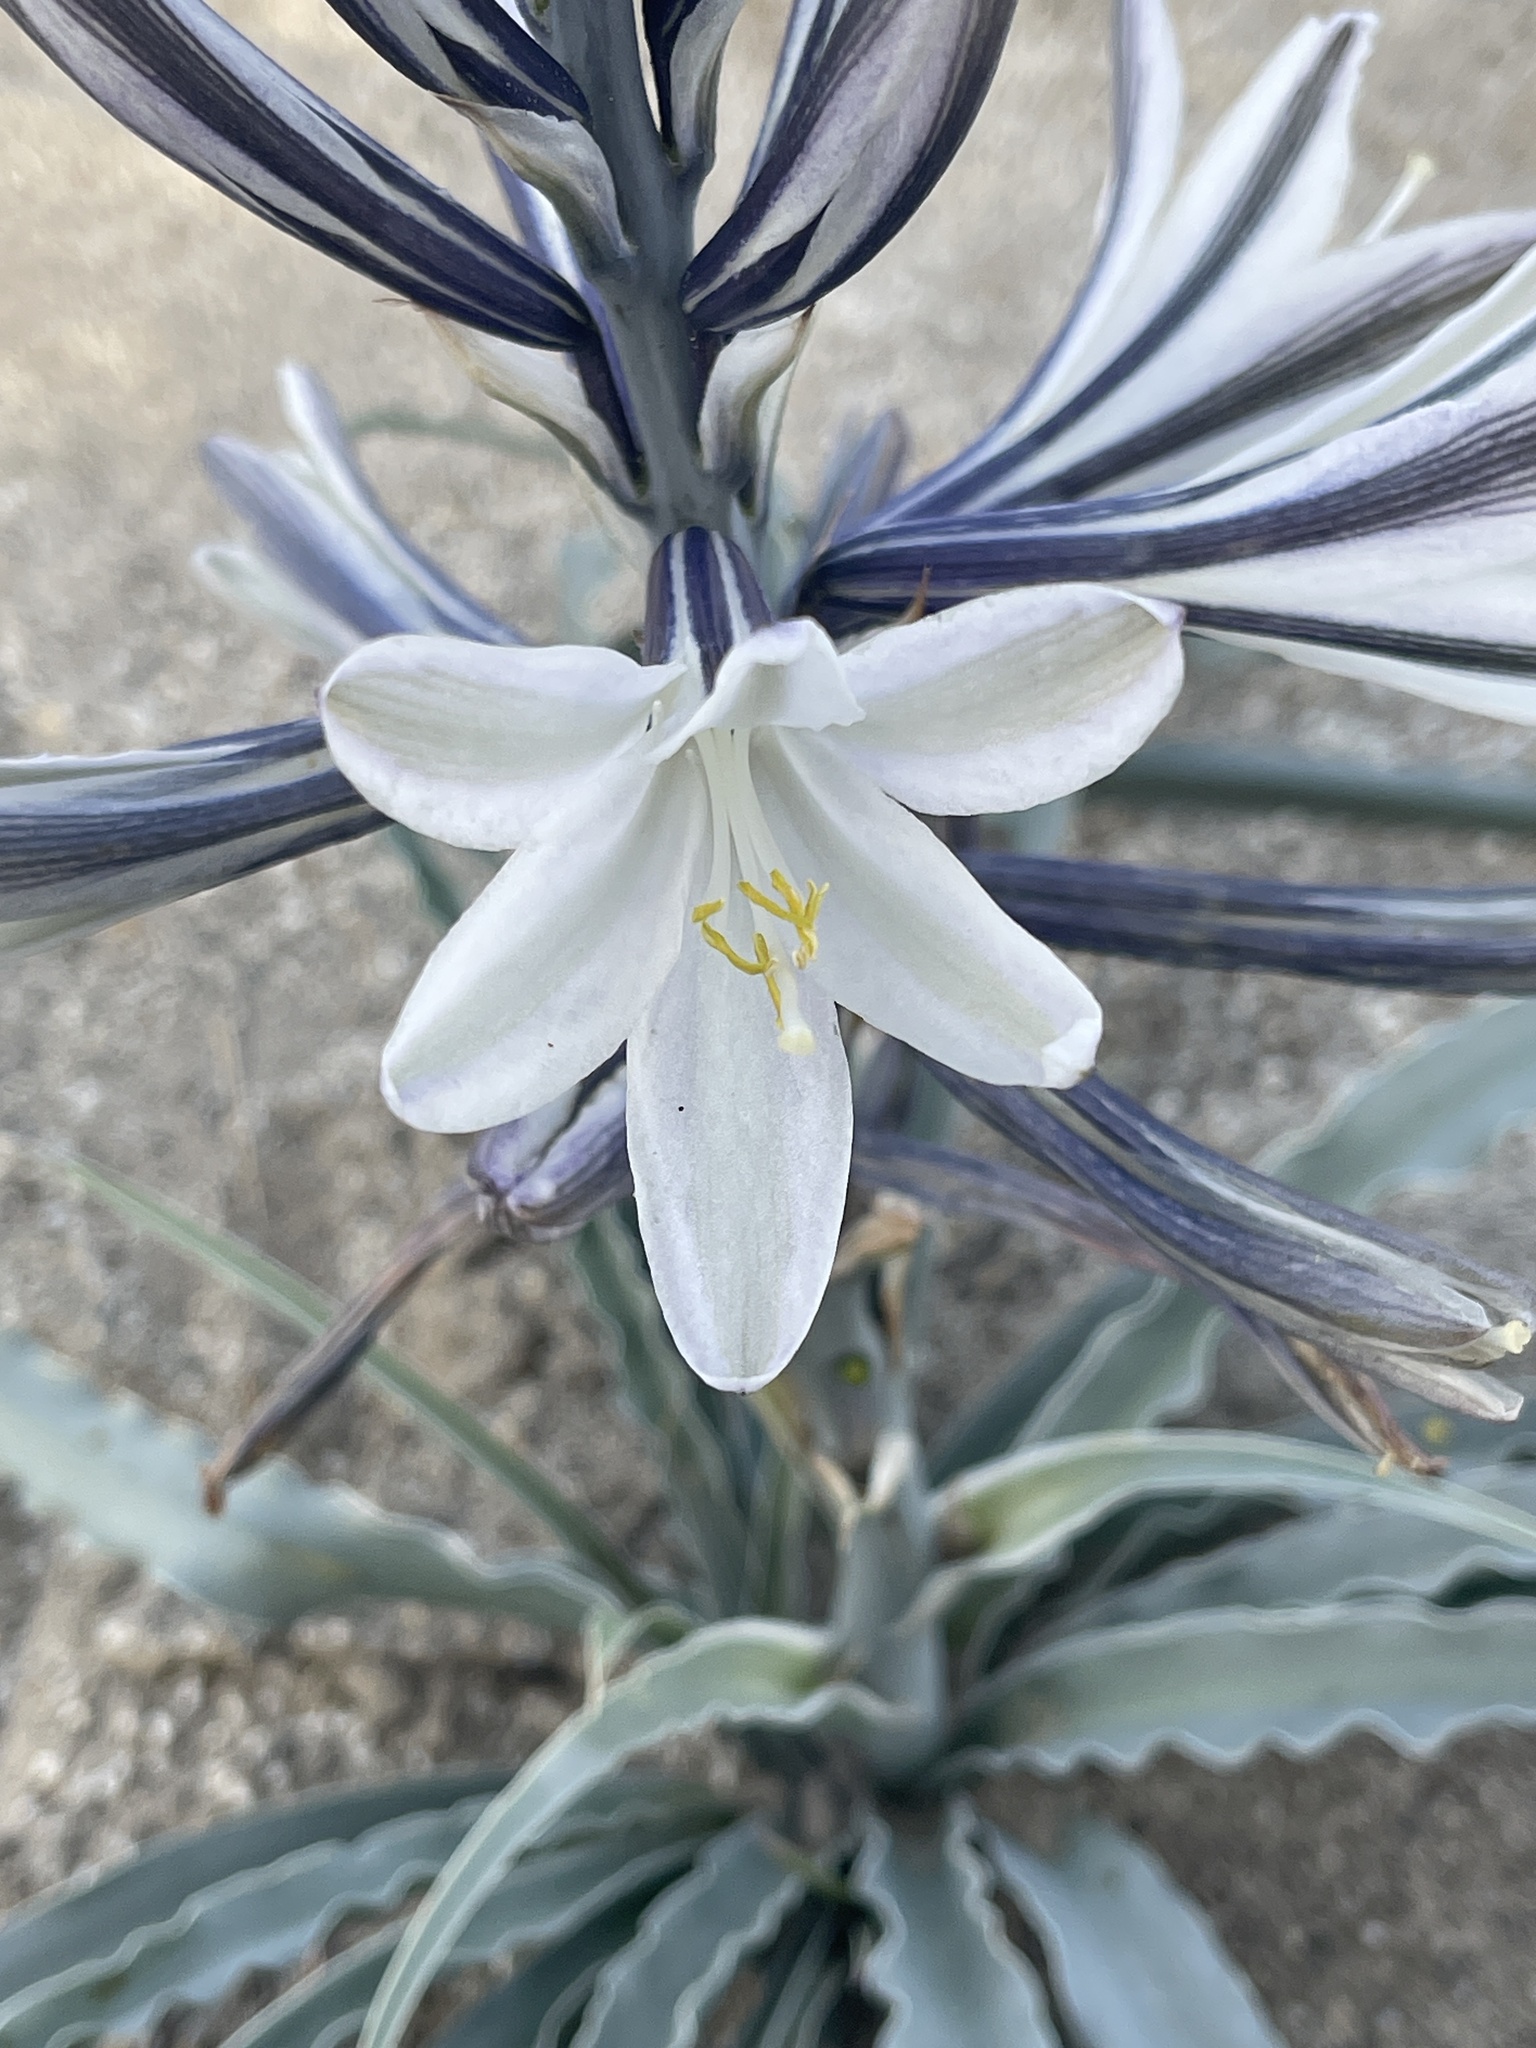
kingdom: Plantae
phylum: Tracheophyta
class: Liliopsida
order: Asparagales
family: Asparagaceae
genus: Hesperocallis
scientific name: Hesperocallis undulata
